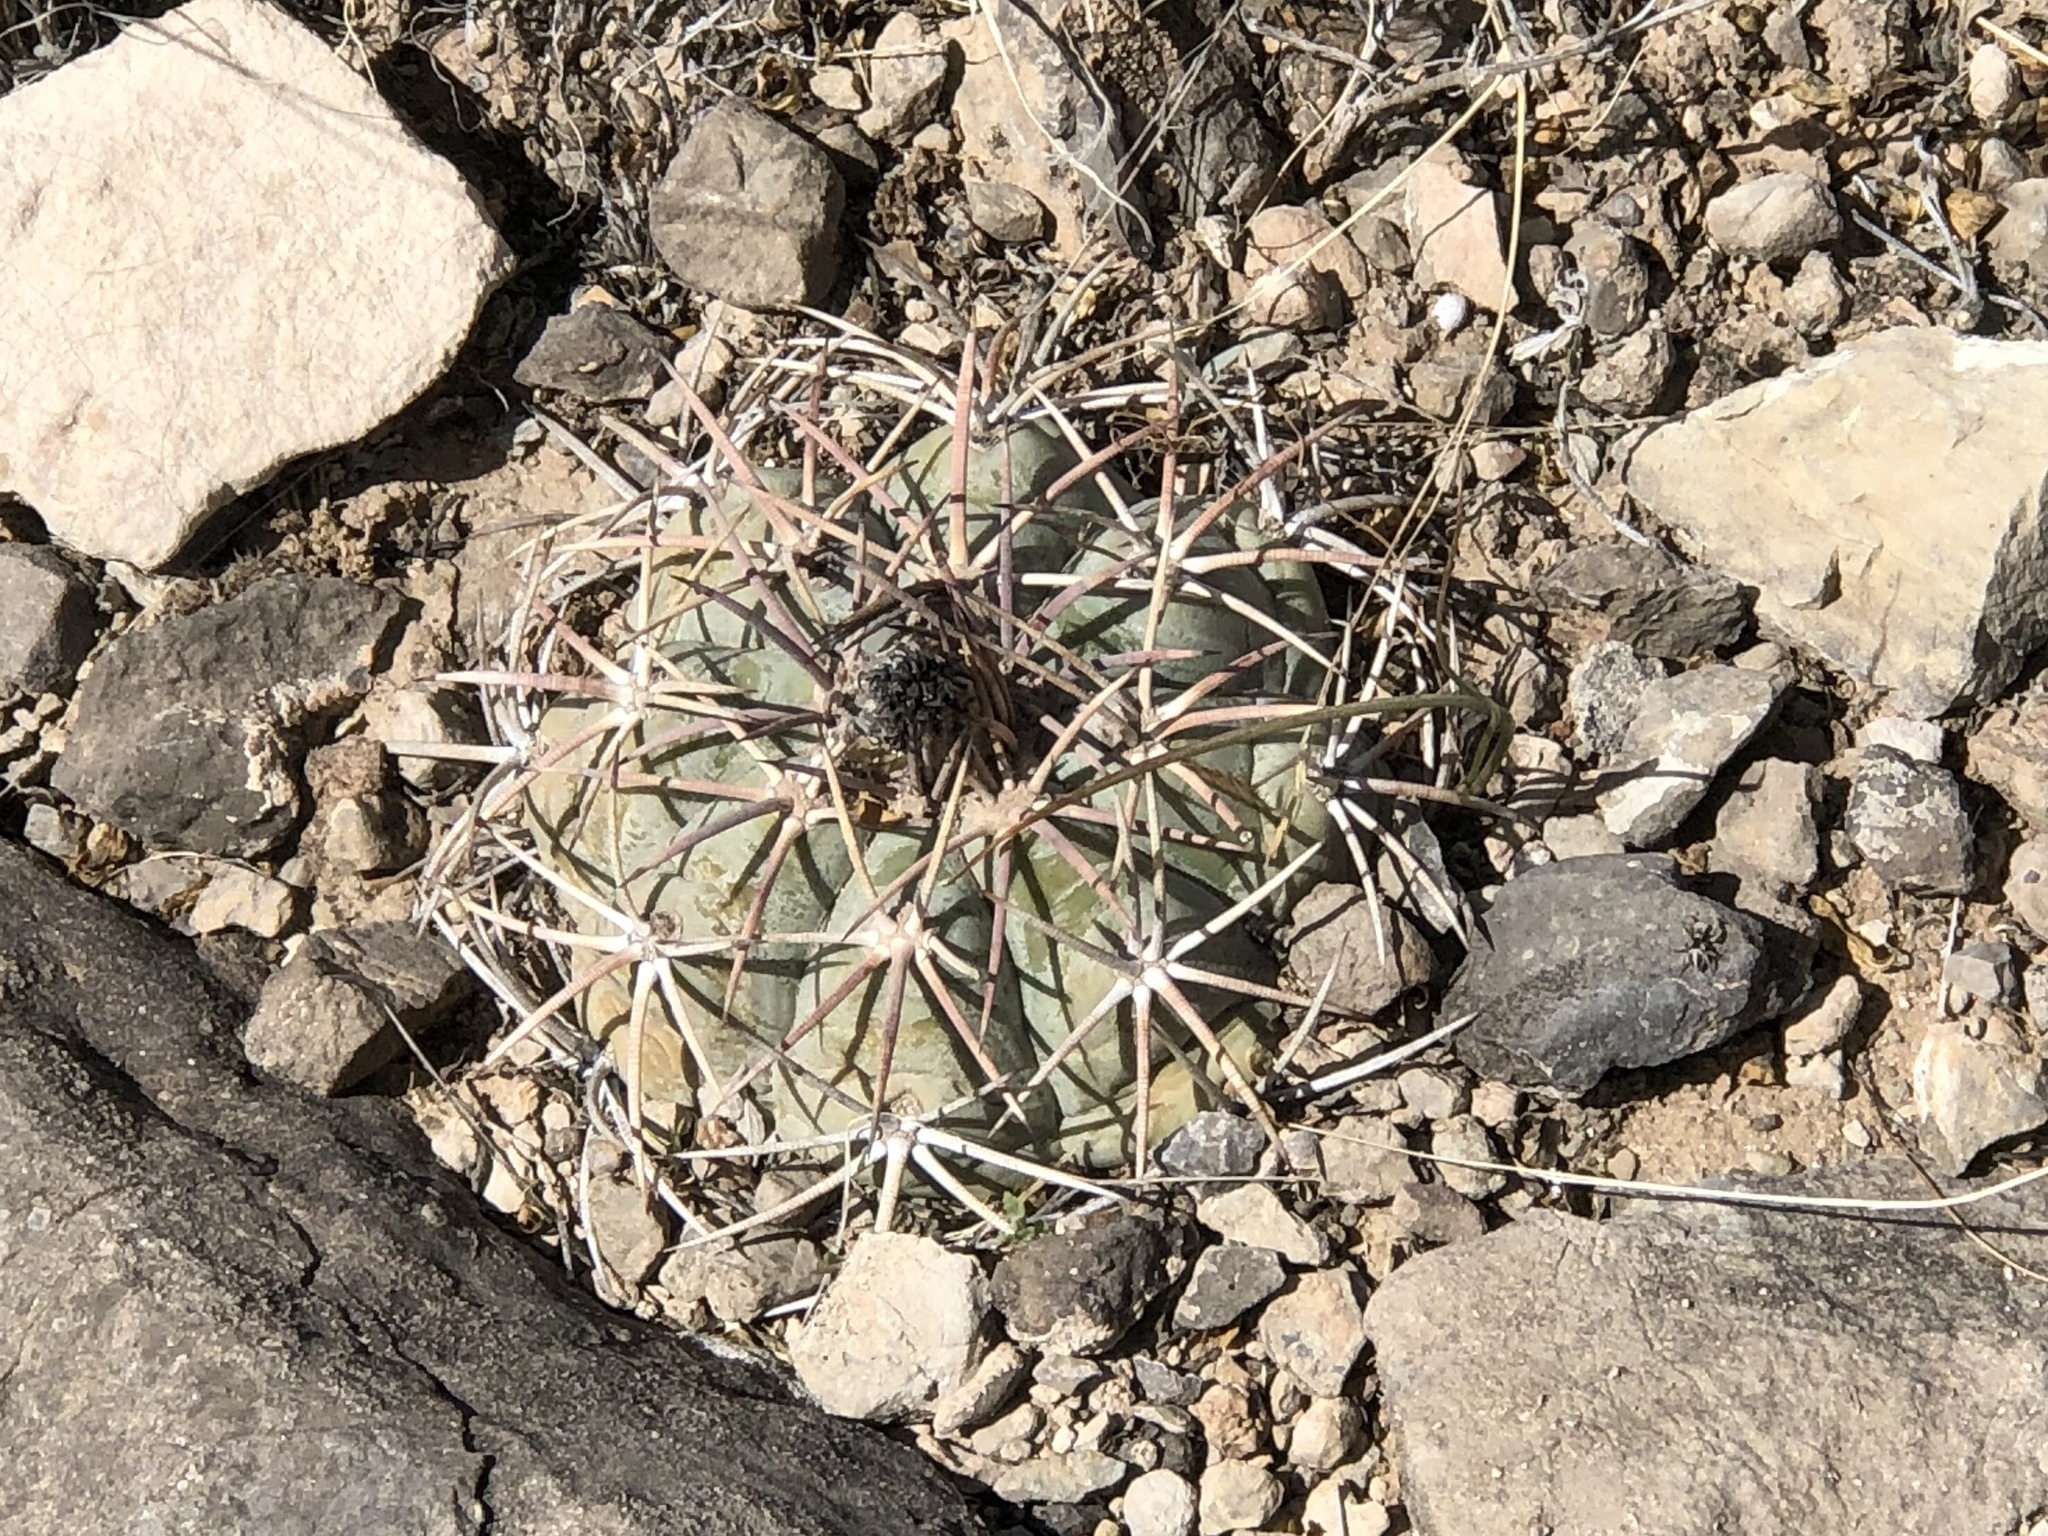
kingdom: Plantae
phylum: Tracheophyta
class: Magnoliopsida
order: Caryophyllales
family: Cactaceae
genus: Echinocactus
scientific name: Echinocactus horizonthalonius
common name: Devilshead
